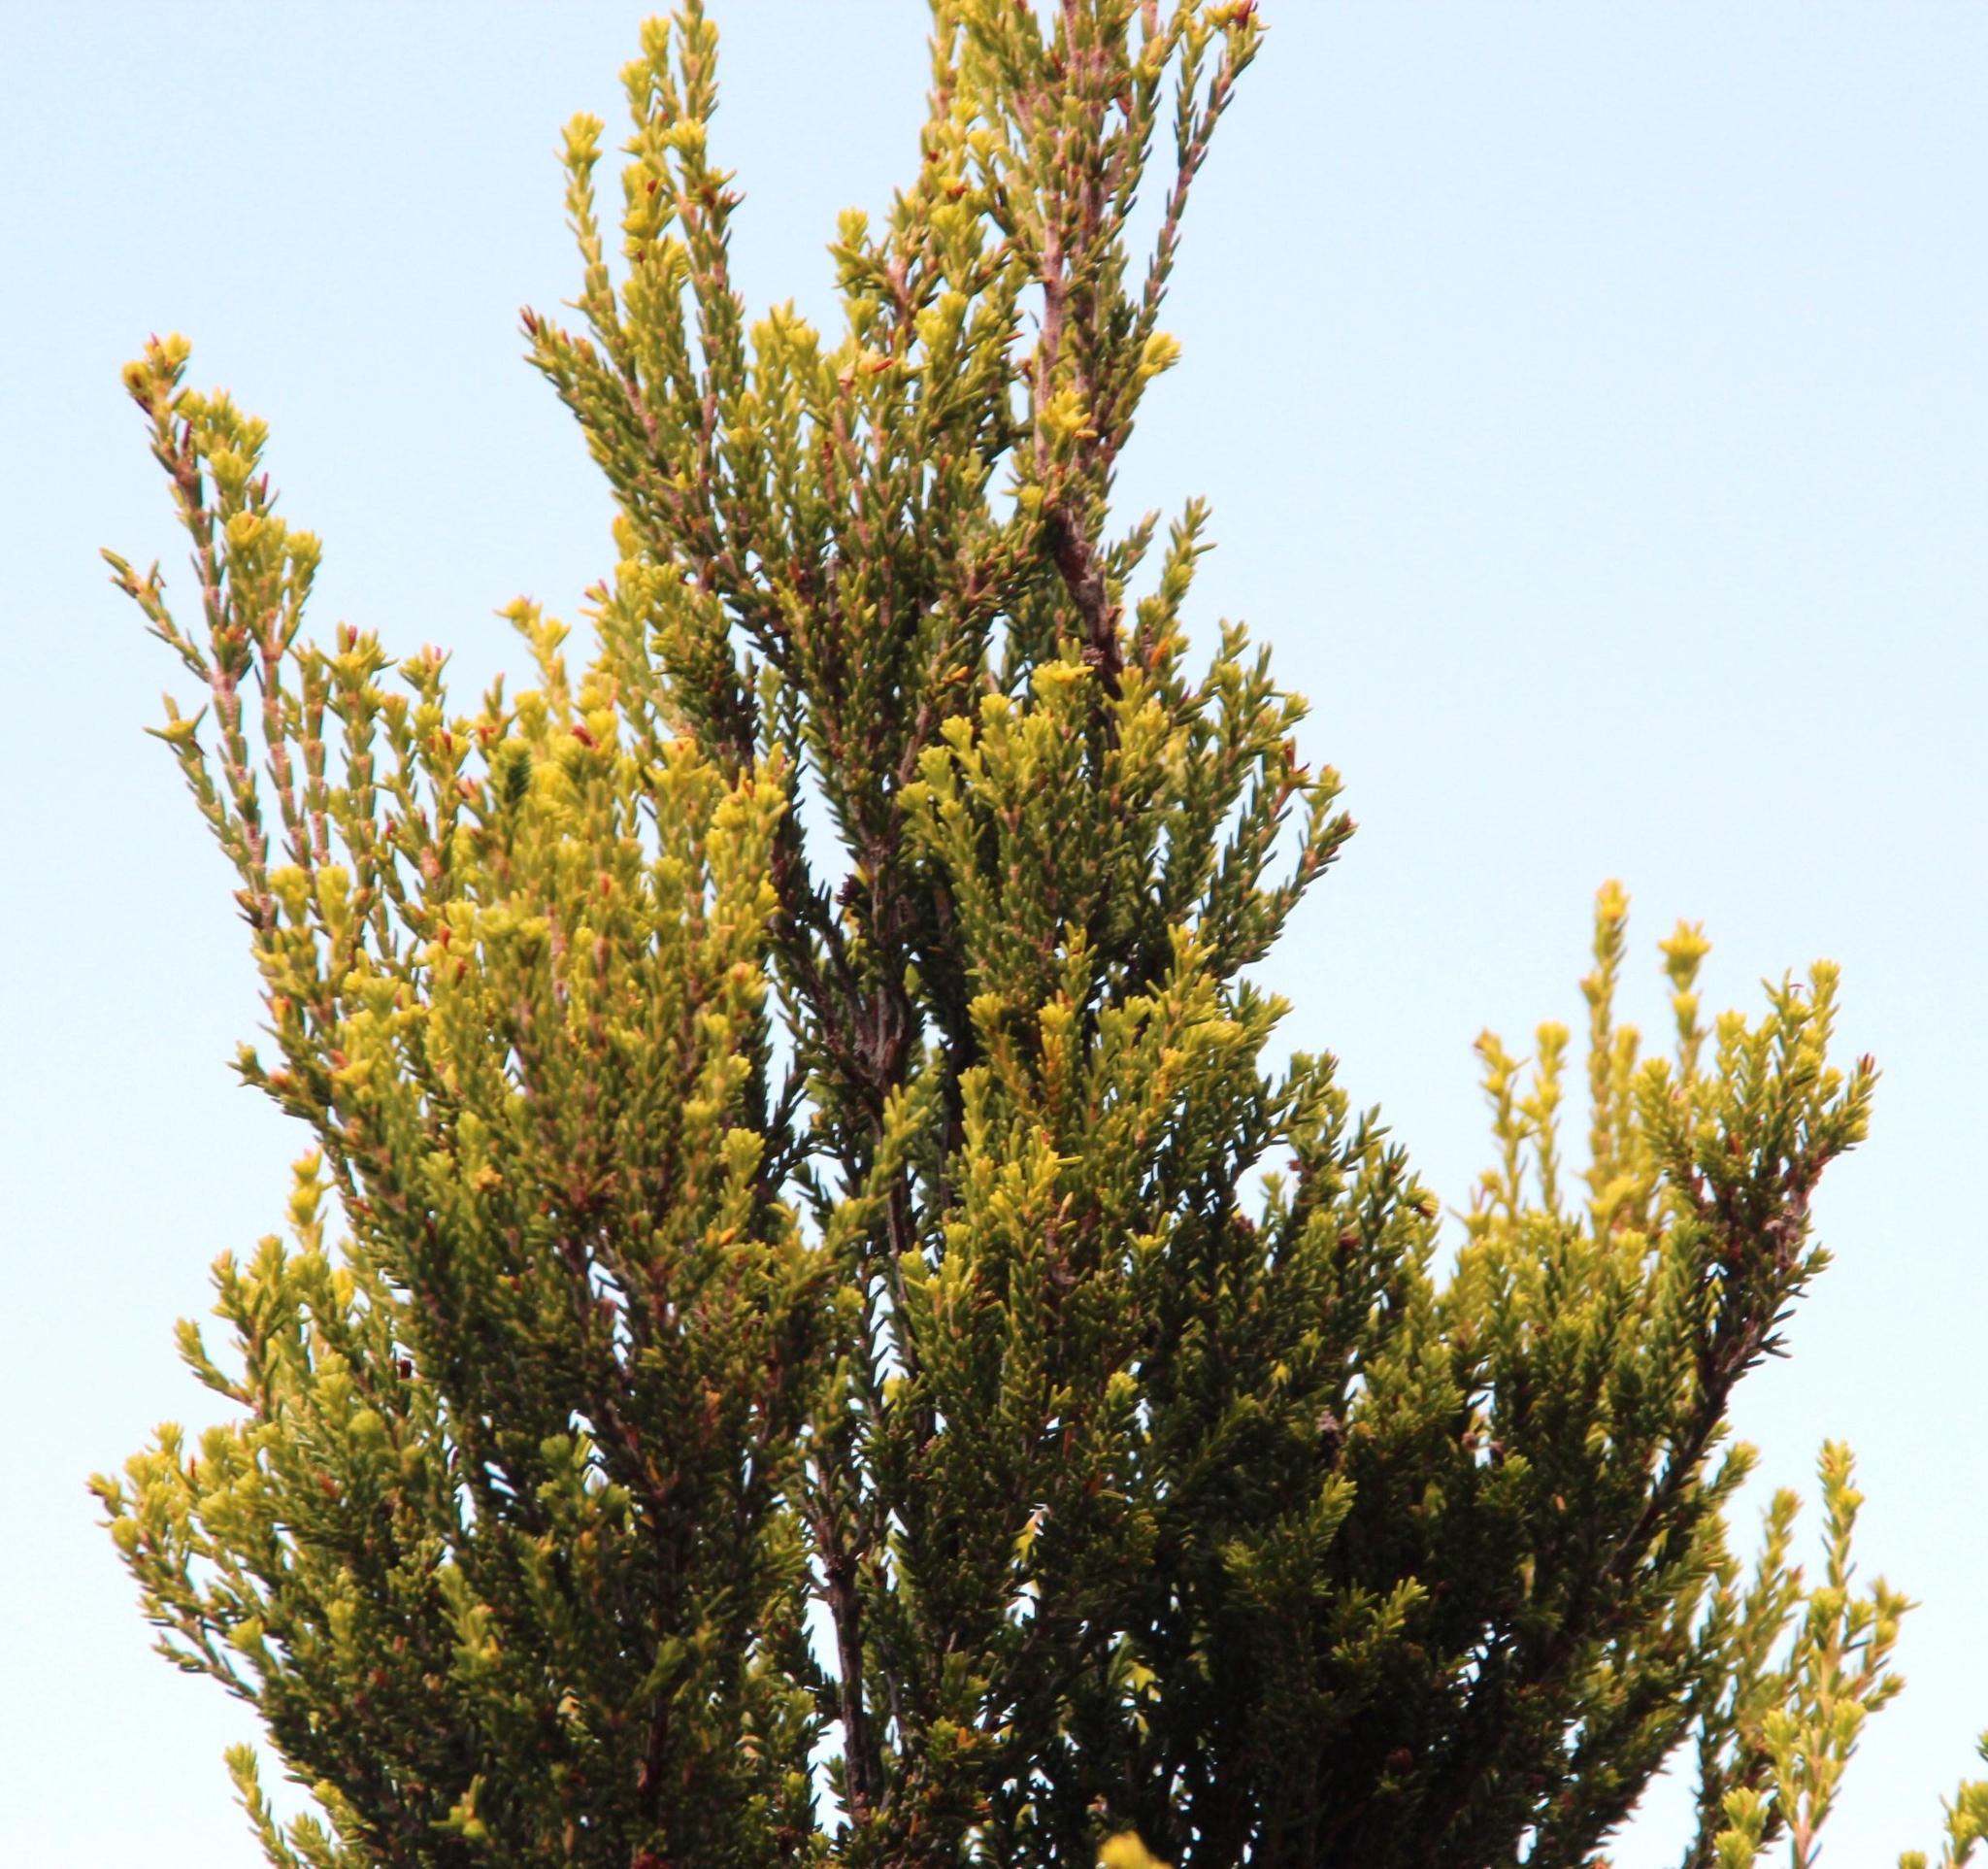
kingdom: Plantae
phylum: Tracheophyta
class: Magnoliopsida
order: Ericales
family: Ericaceae
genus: Erica
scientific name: Erica tristis
